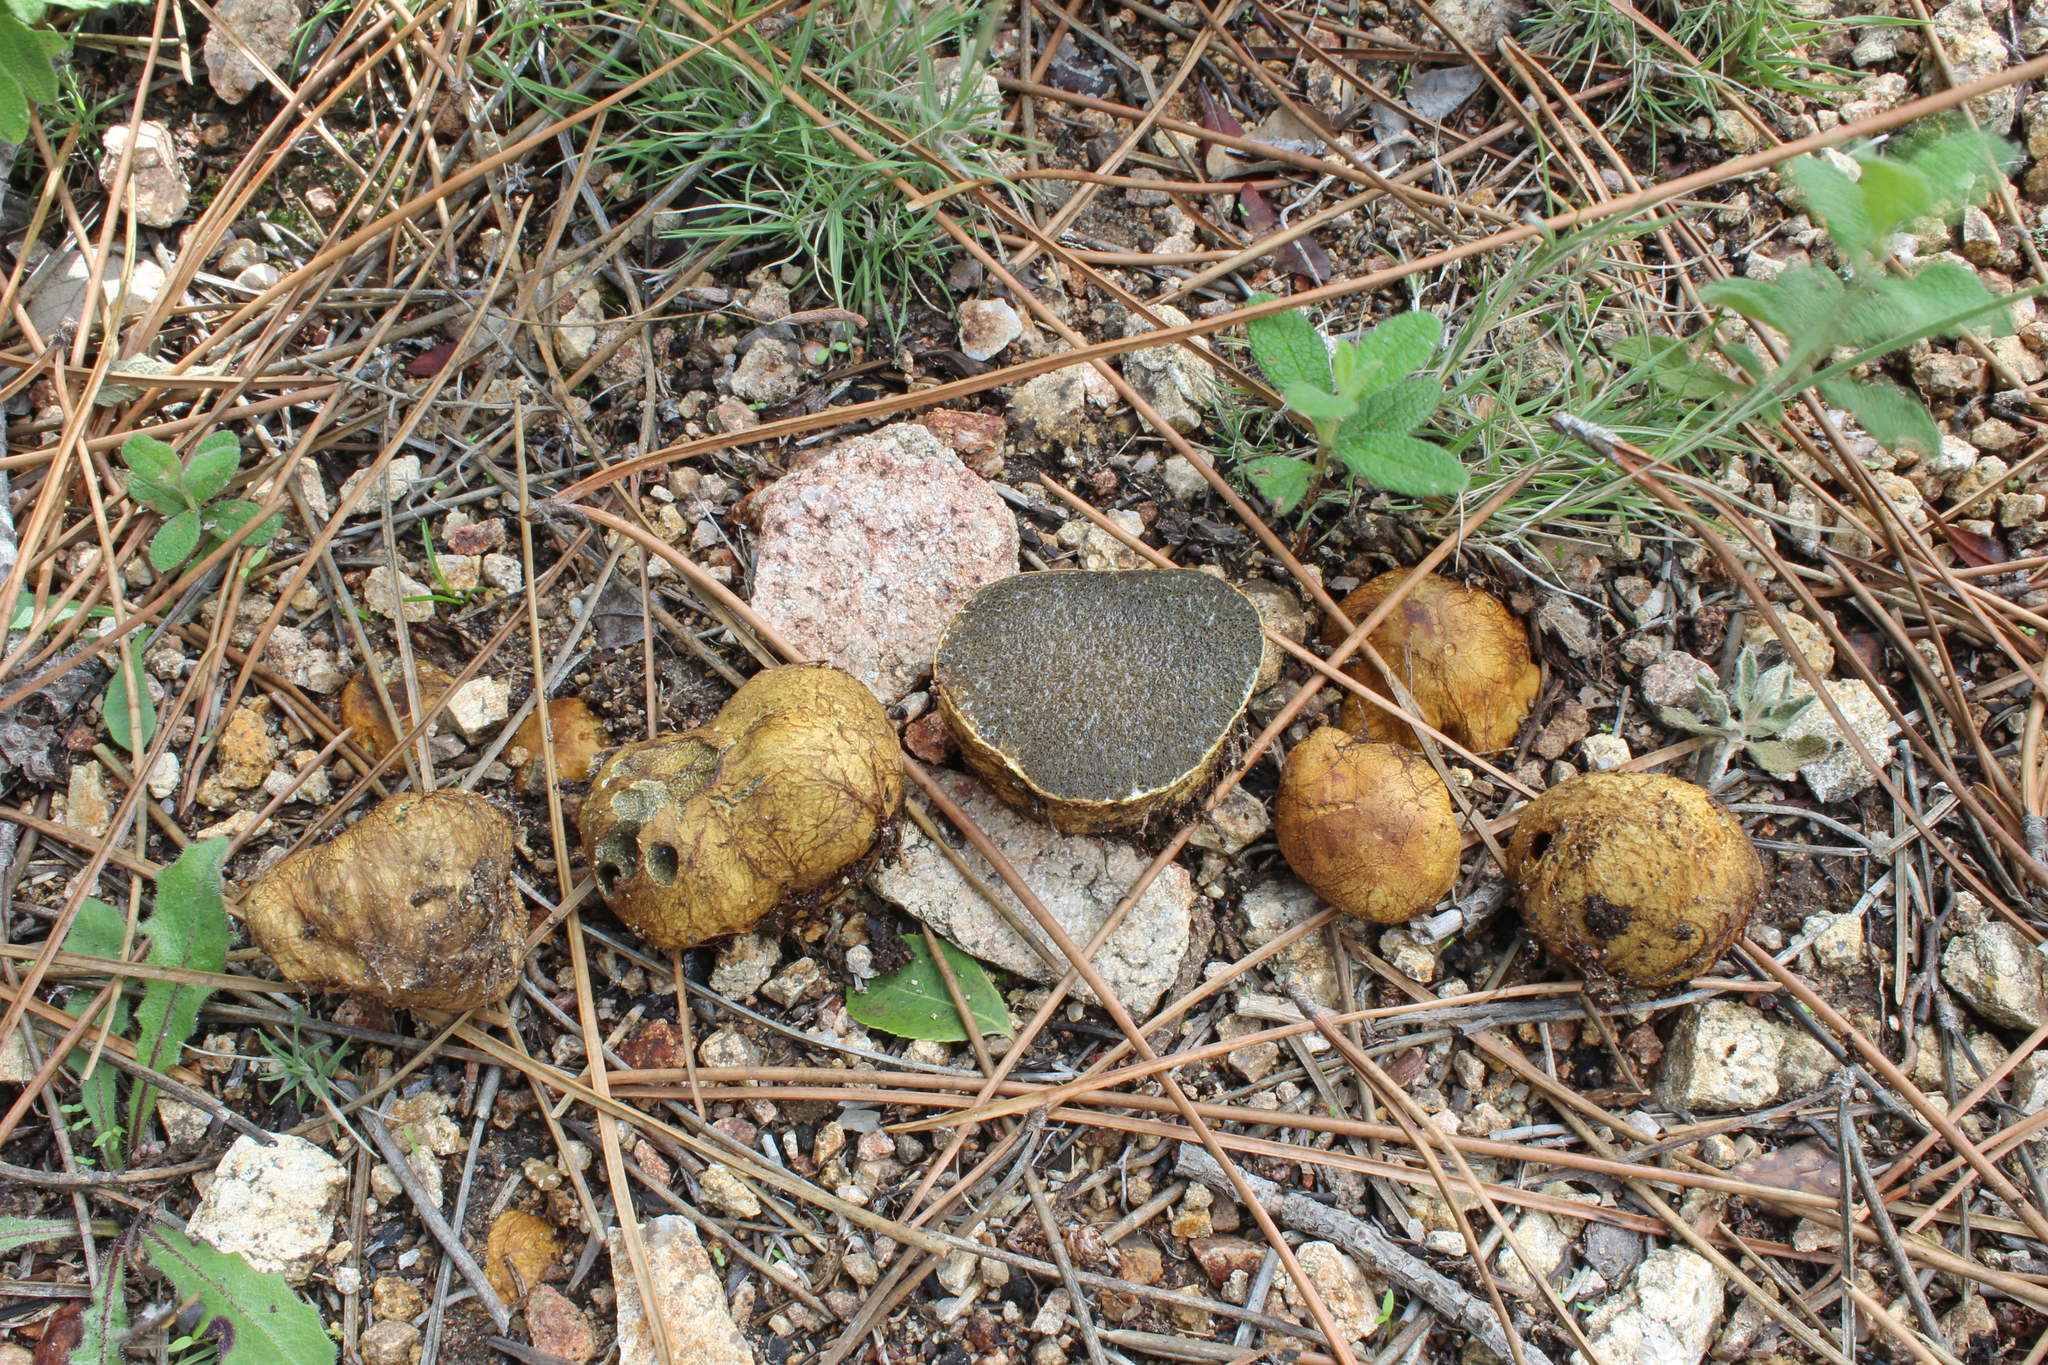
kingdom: Fungi
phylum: Basidiomycota
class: Agaricomycetes
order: Boletales
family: Rhizopogonaceae
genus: Rhizopogon
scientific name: Rhizopogon luteolus
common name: Yellow false truffle
